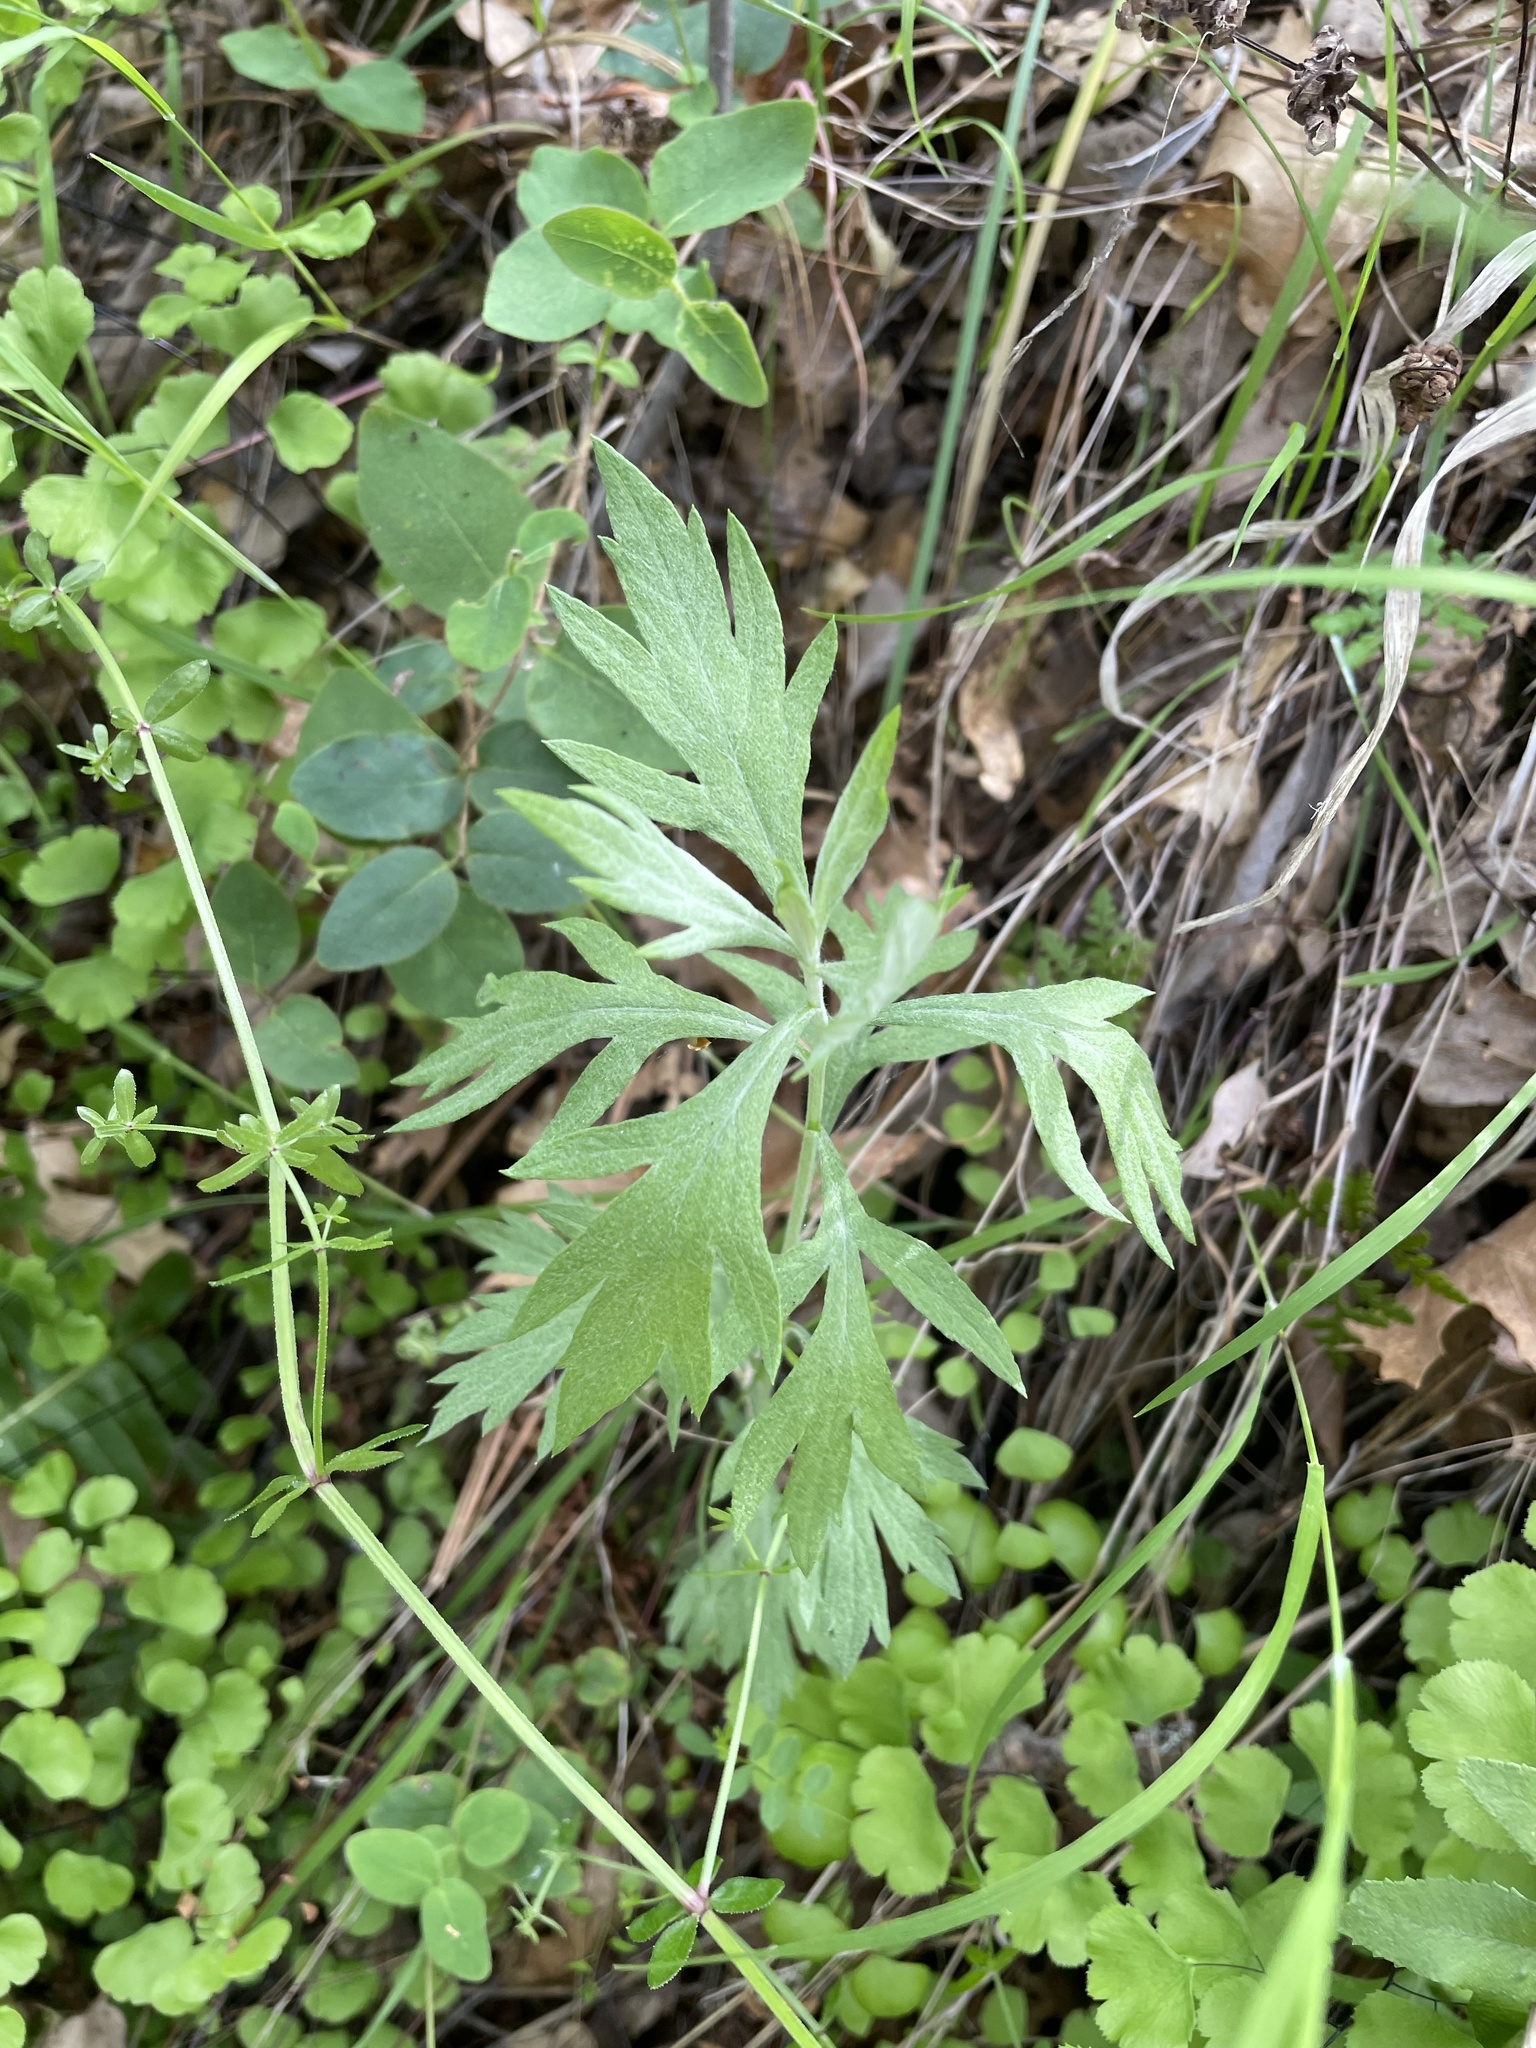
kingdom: Plantae
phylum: Tracheophyta
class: Magnoliopsida
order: Asterales
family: Asteraceae
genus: Artemisia
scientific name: Artemisia douglasiana
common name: Northwest mugwort
